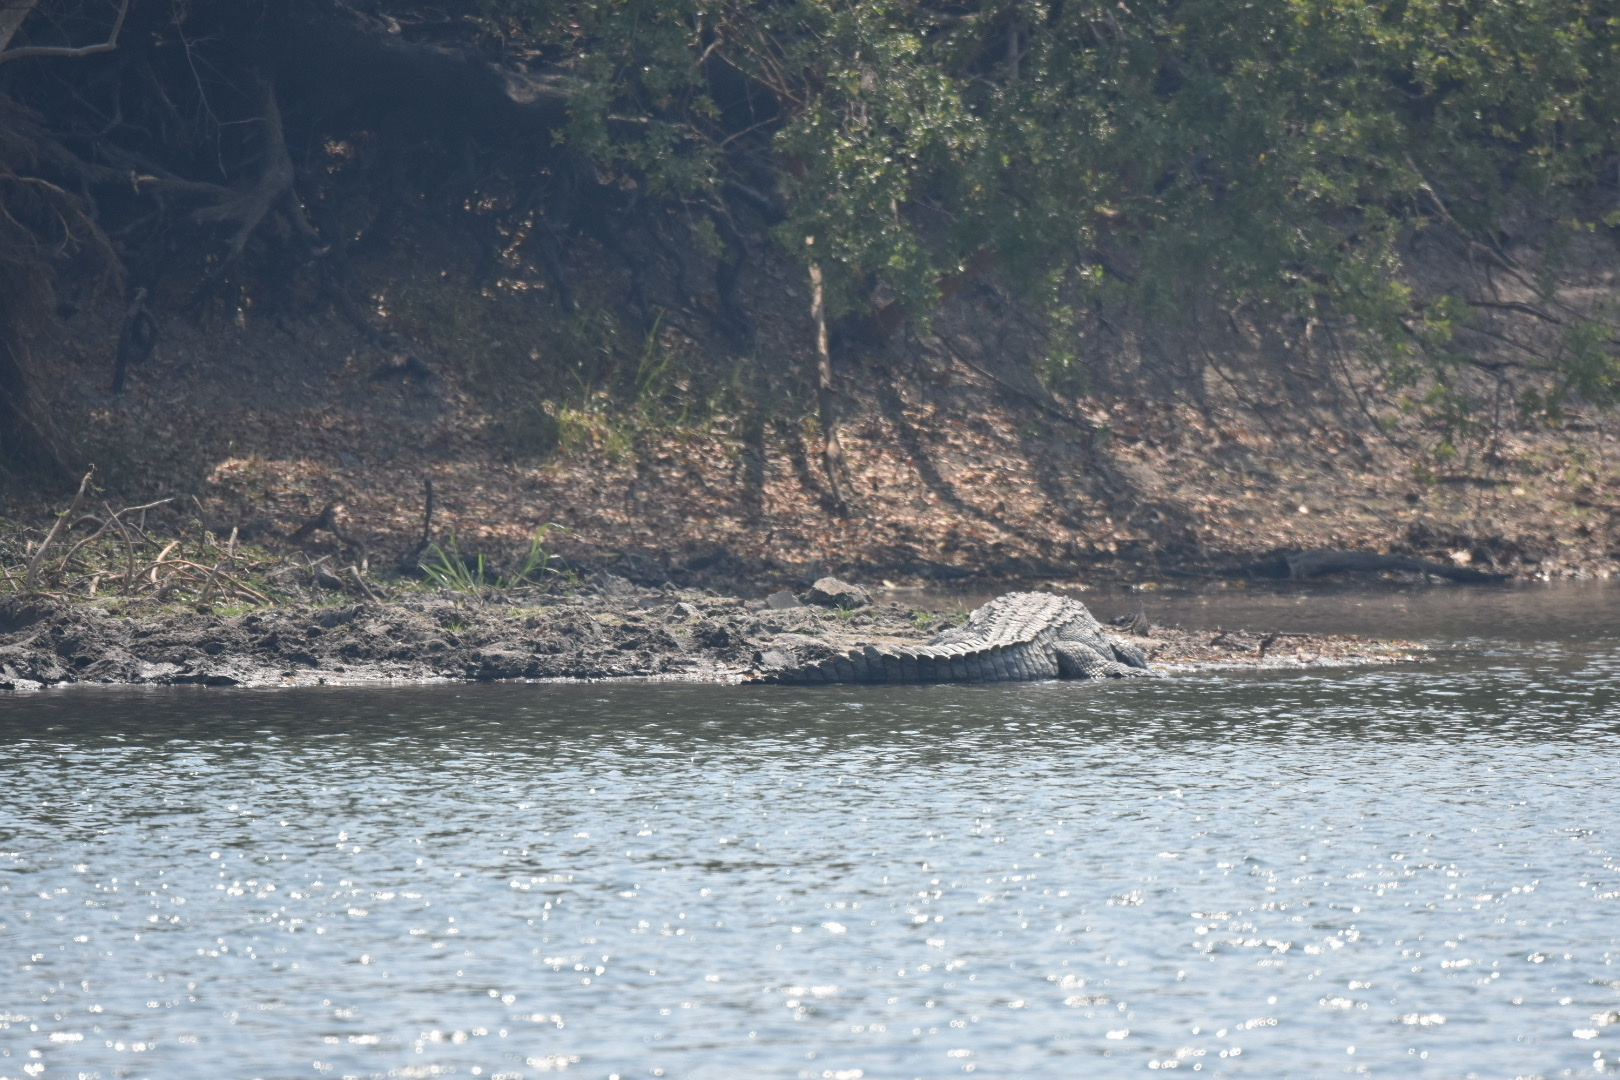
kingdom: Animalia
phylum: Chordata
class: Crocodylia
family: Crocodylidae
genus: Crocodylus
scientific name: Crocodylus niloticus
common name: Nile crocodile
